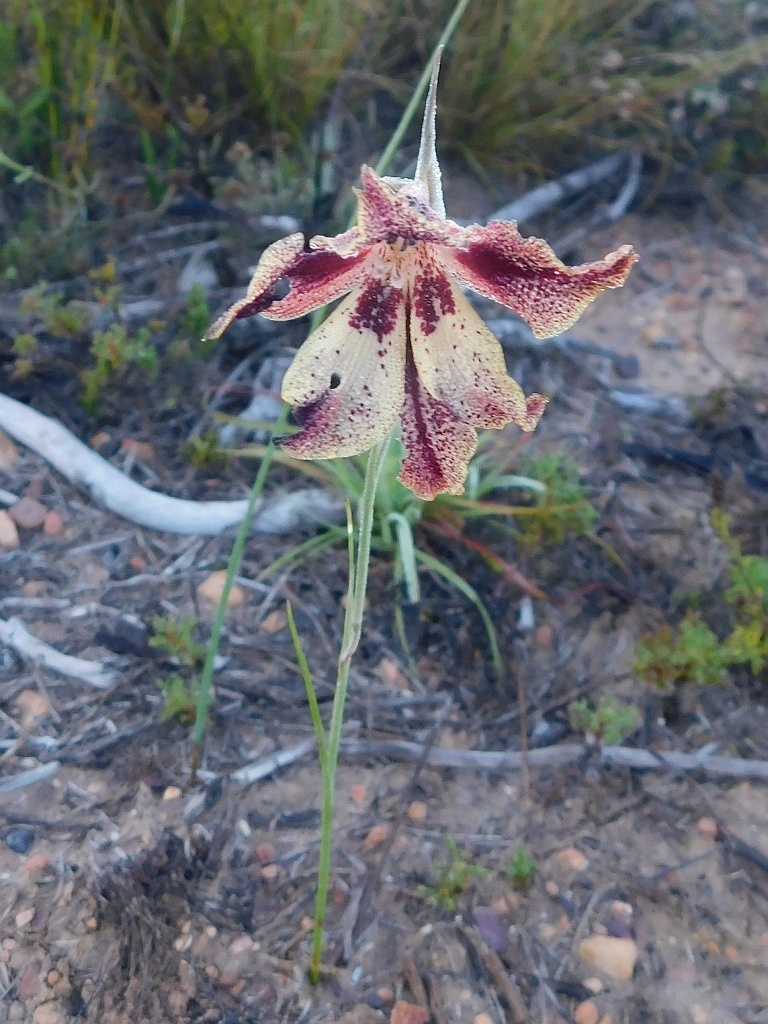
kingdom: Plantae
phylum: Tracheophyta
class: Liliopsida
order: Asparagales
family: Iridaceae
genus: Gladiolus
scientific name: Gladiolus maculatus
